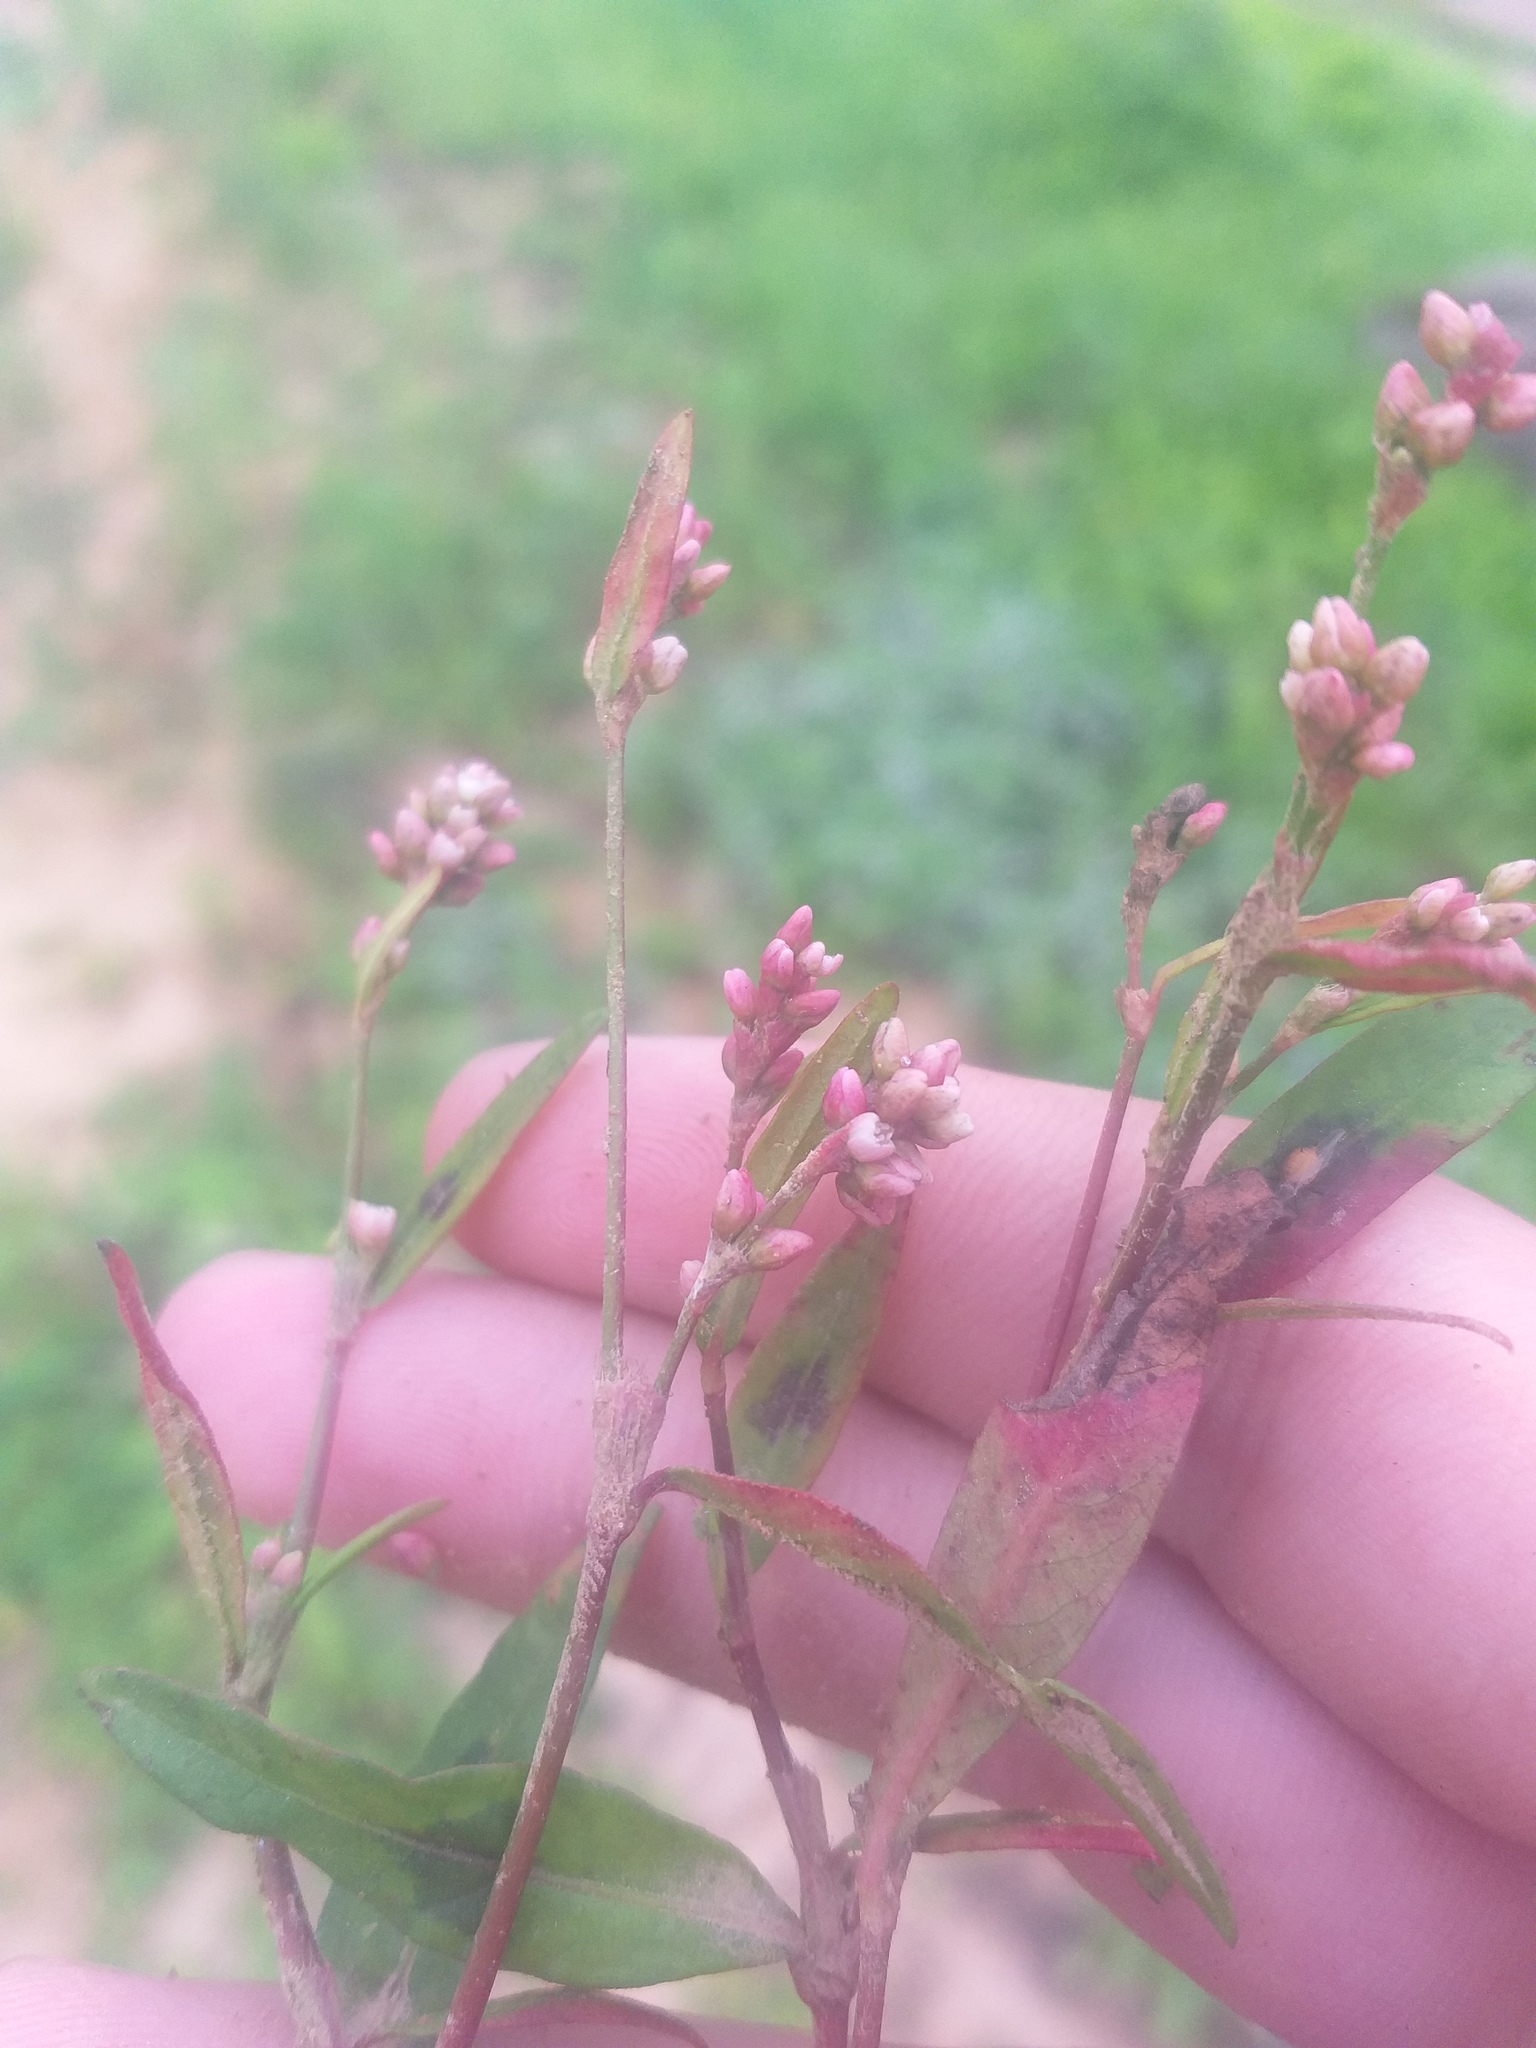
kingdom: Plantae
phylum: Tracheophyta
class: Magnoliopsida
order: Caryophyllales
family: Polygonaceae
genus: Persicaria
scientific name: Persicaria maculosa
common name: Redshank
